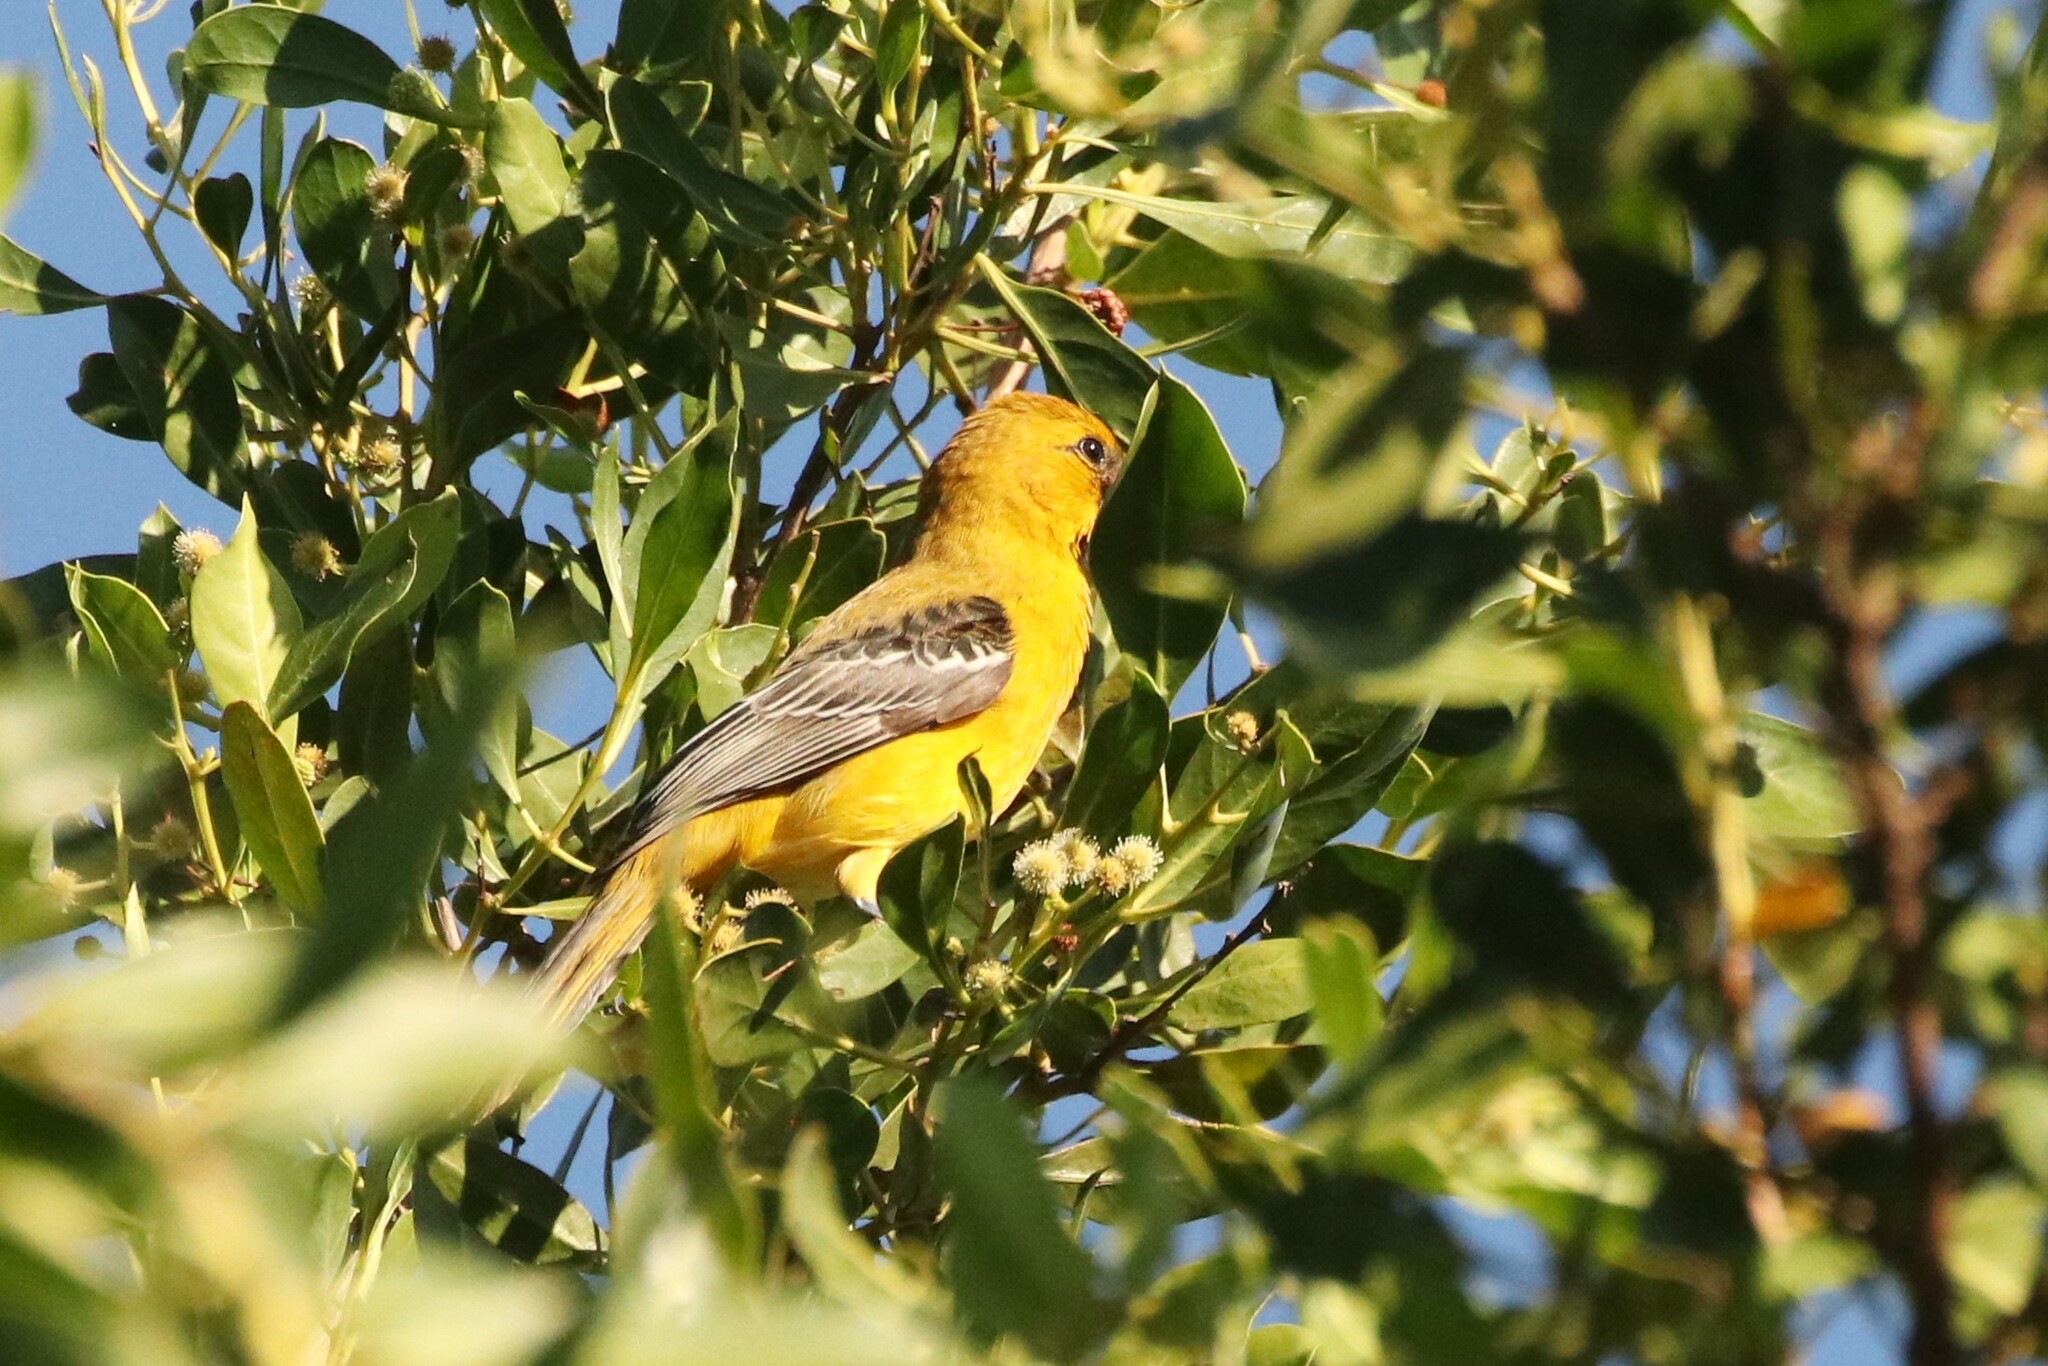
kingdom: Animalia
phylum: Chordata
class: Aves
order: Passeriformes
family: Icteridae
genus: Icterus
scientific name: Icterus auratus
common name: Orange oriole
